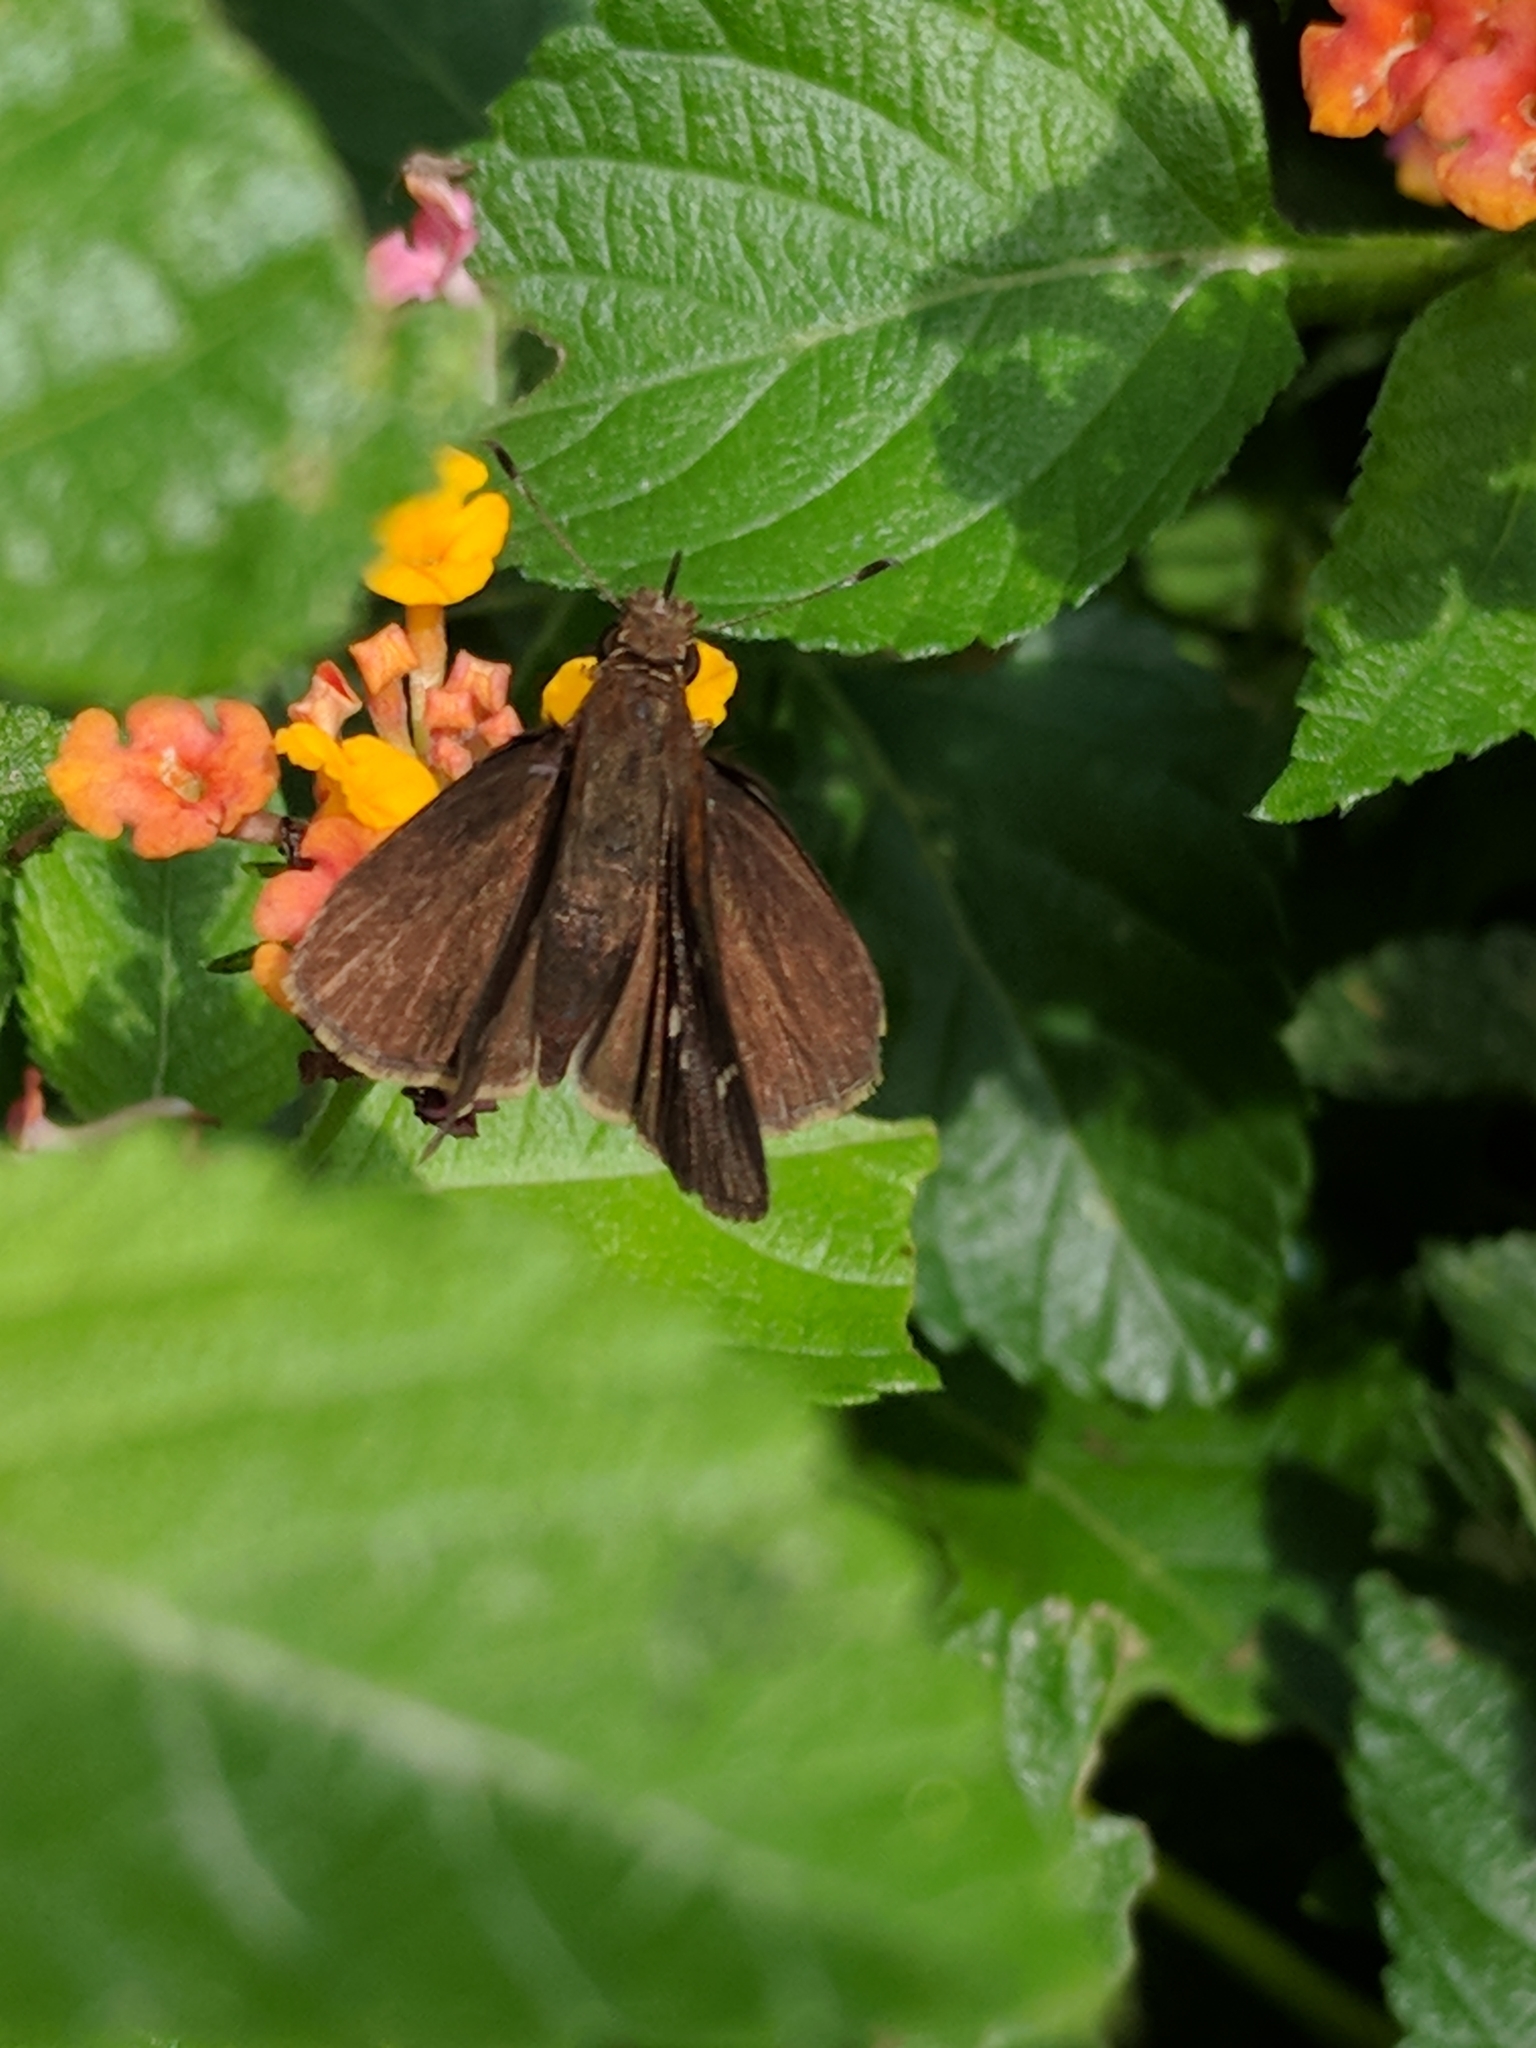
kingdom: Animalia
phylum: Arthropoda
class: Insecta
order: Lepidoptera
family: Hesperiidae
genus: Lerema
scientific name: Lerema accius
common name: Clouded skipper
